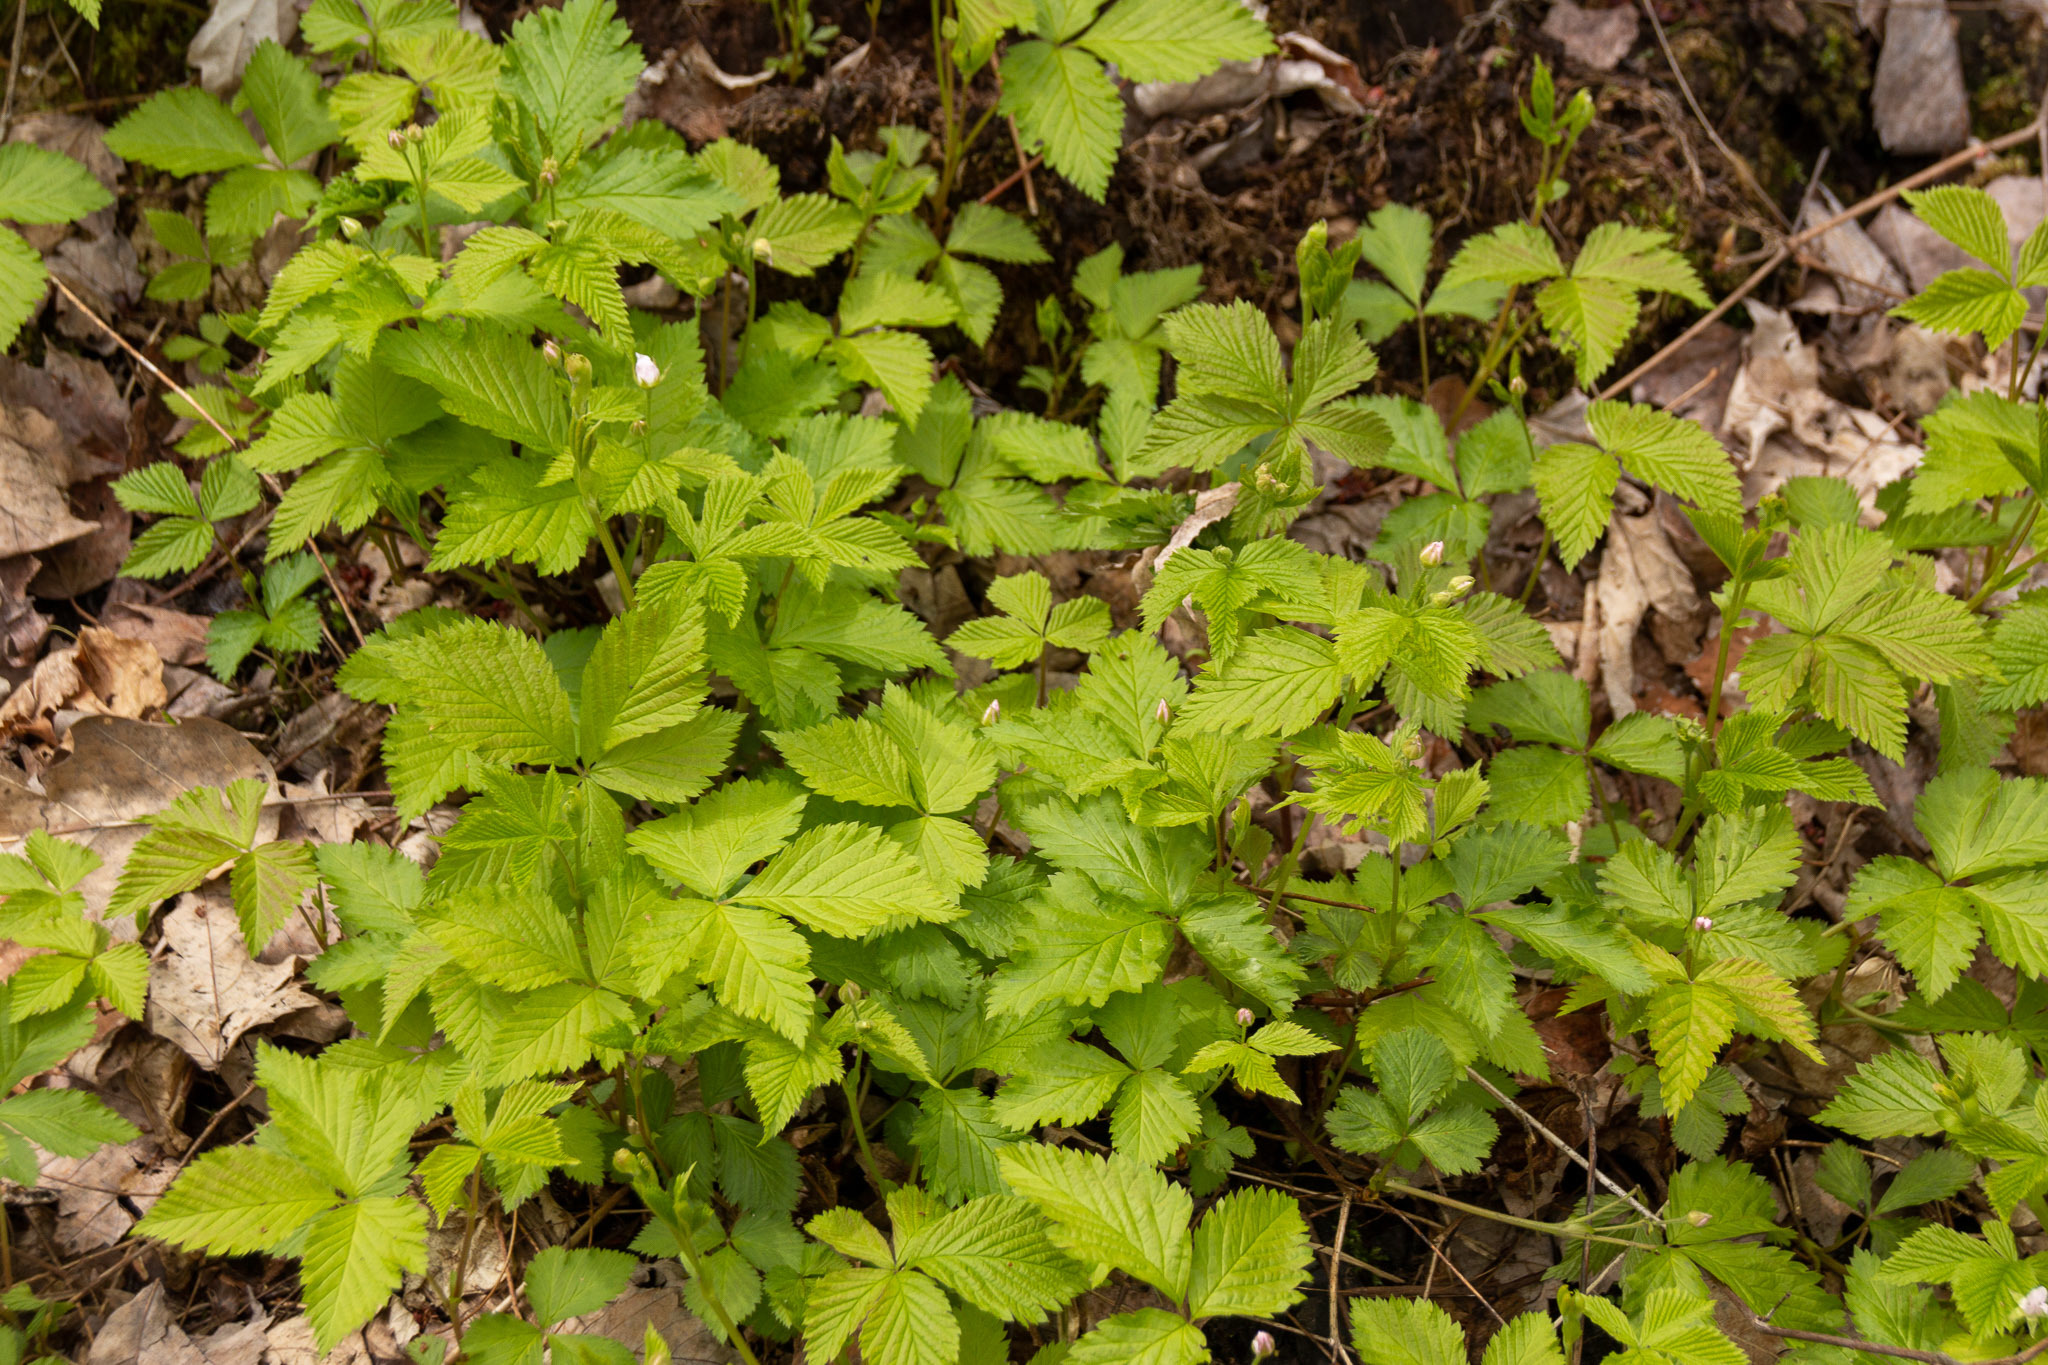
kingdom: Plantae
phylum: Tracheophyta
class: Magnoliopsida
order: Rosales
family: Rosaceae
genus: Rubus
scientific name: Rubus pubescens
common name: Dwarf raspberry
